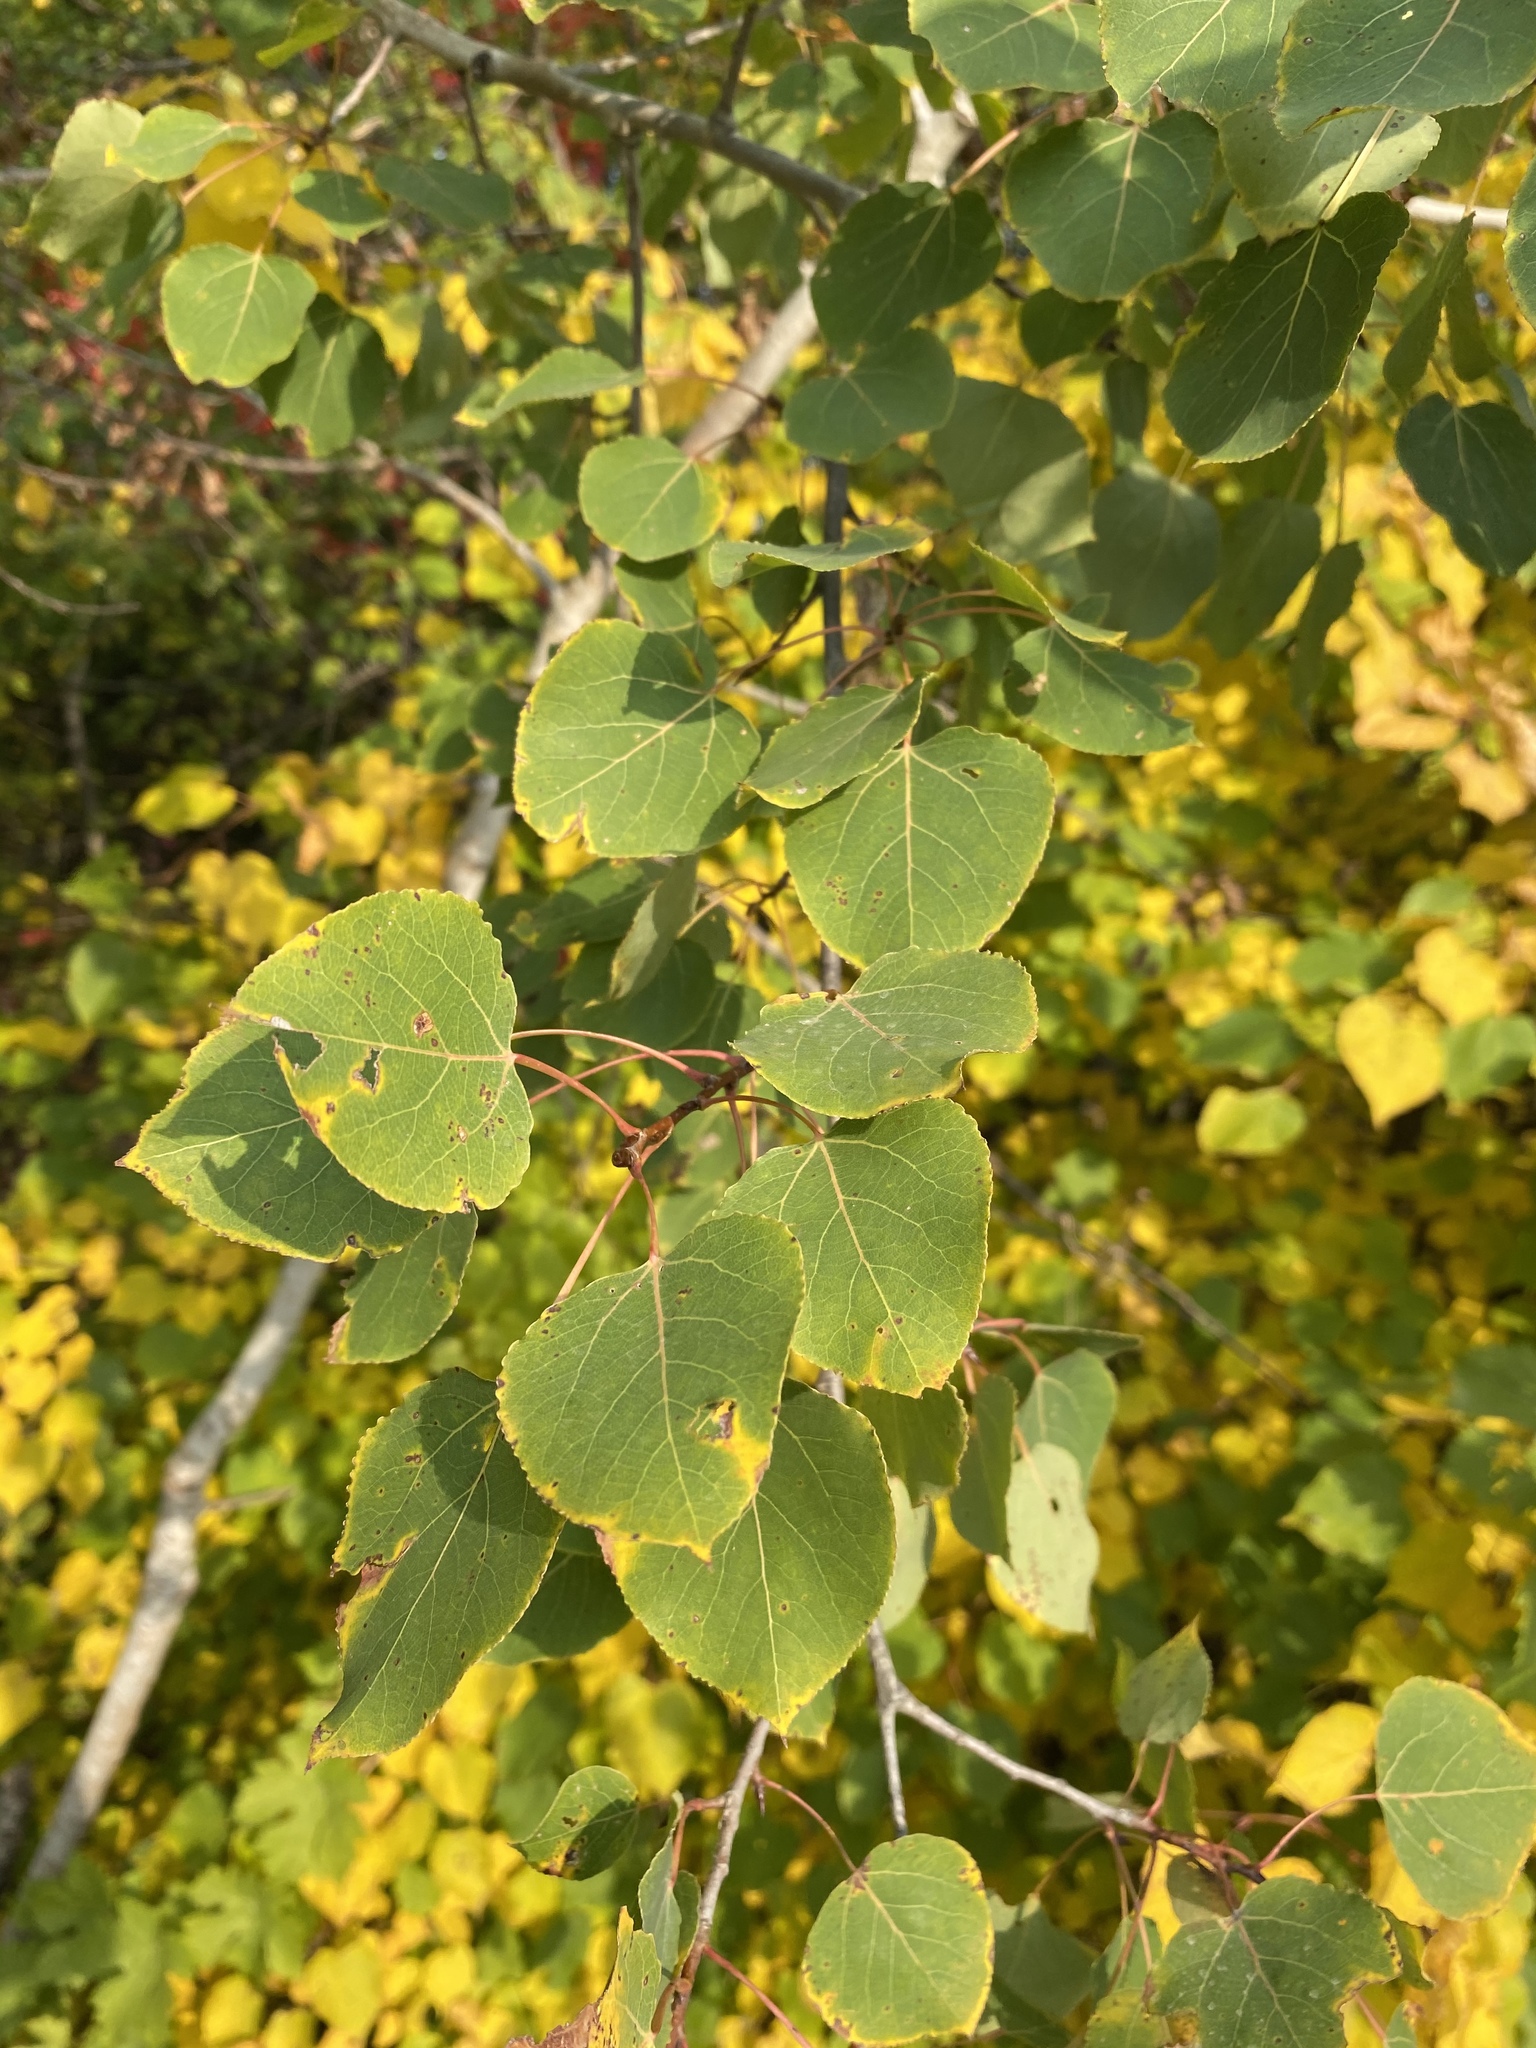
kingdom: Plantae
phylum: Tracheophyta
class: Magnoliopsida
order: Malpighiales
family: Salicaceae
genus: Populus
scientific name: Populus tremuloides
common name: Quaking aspen
